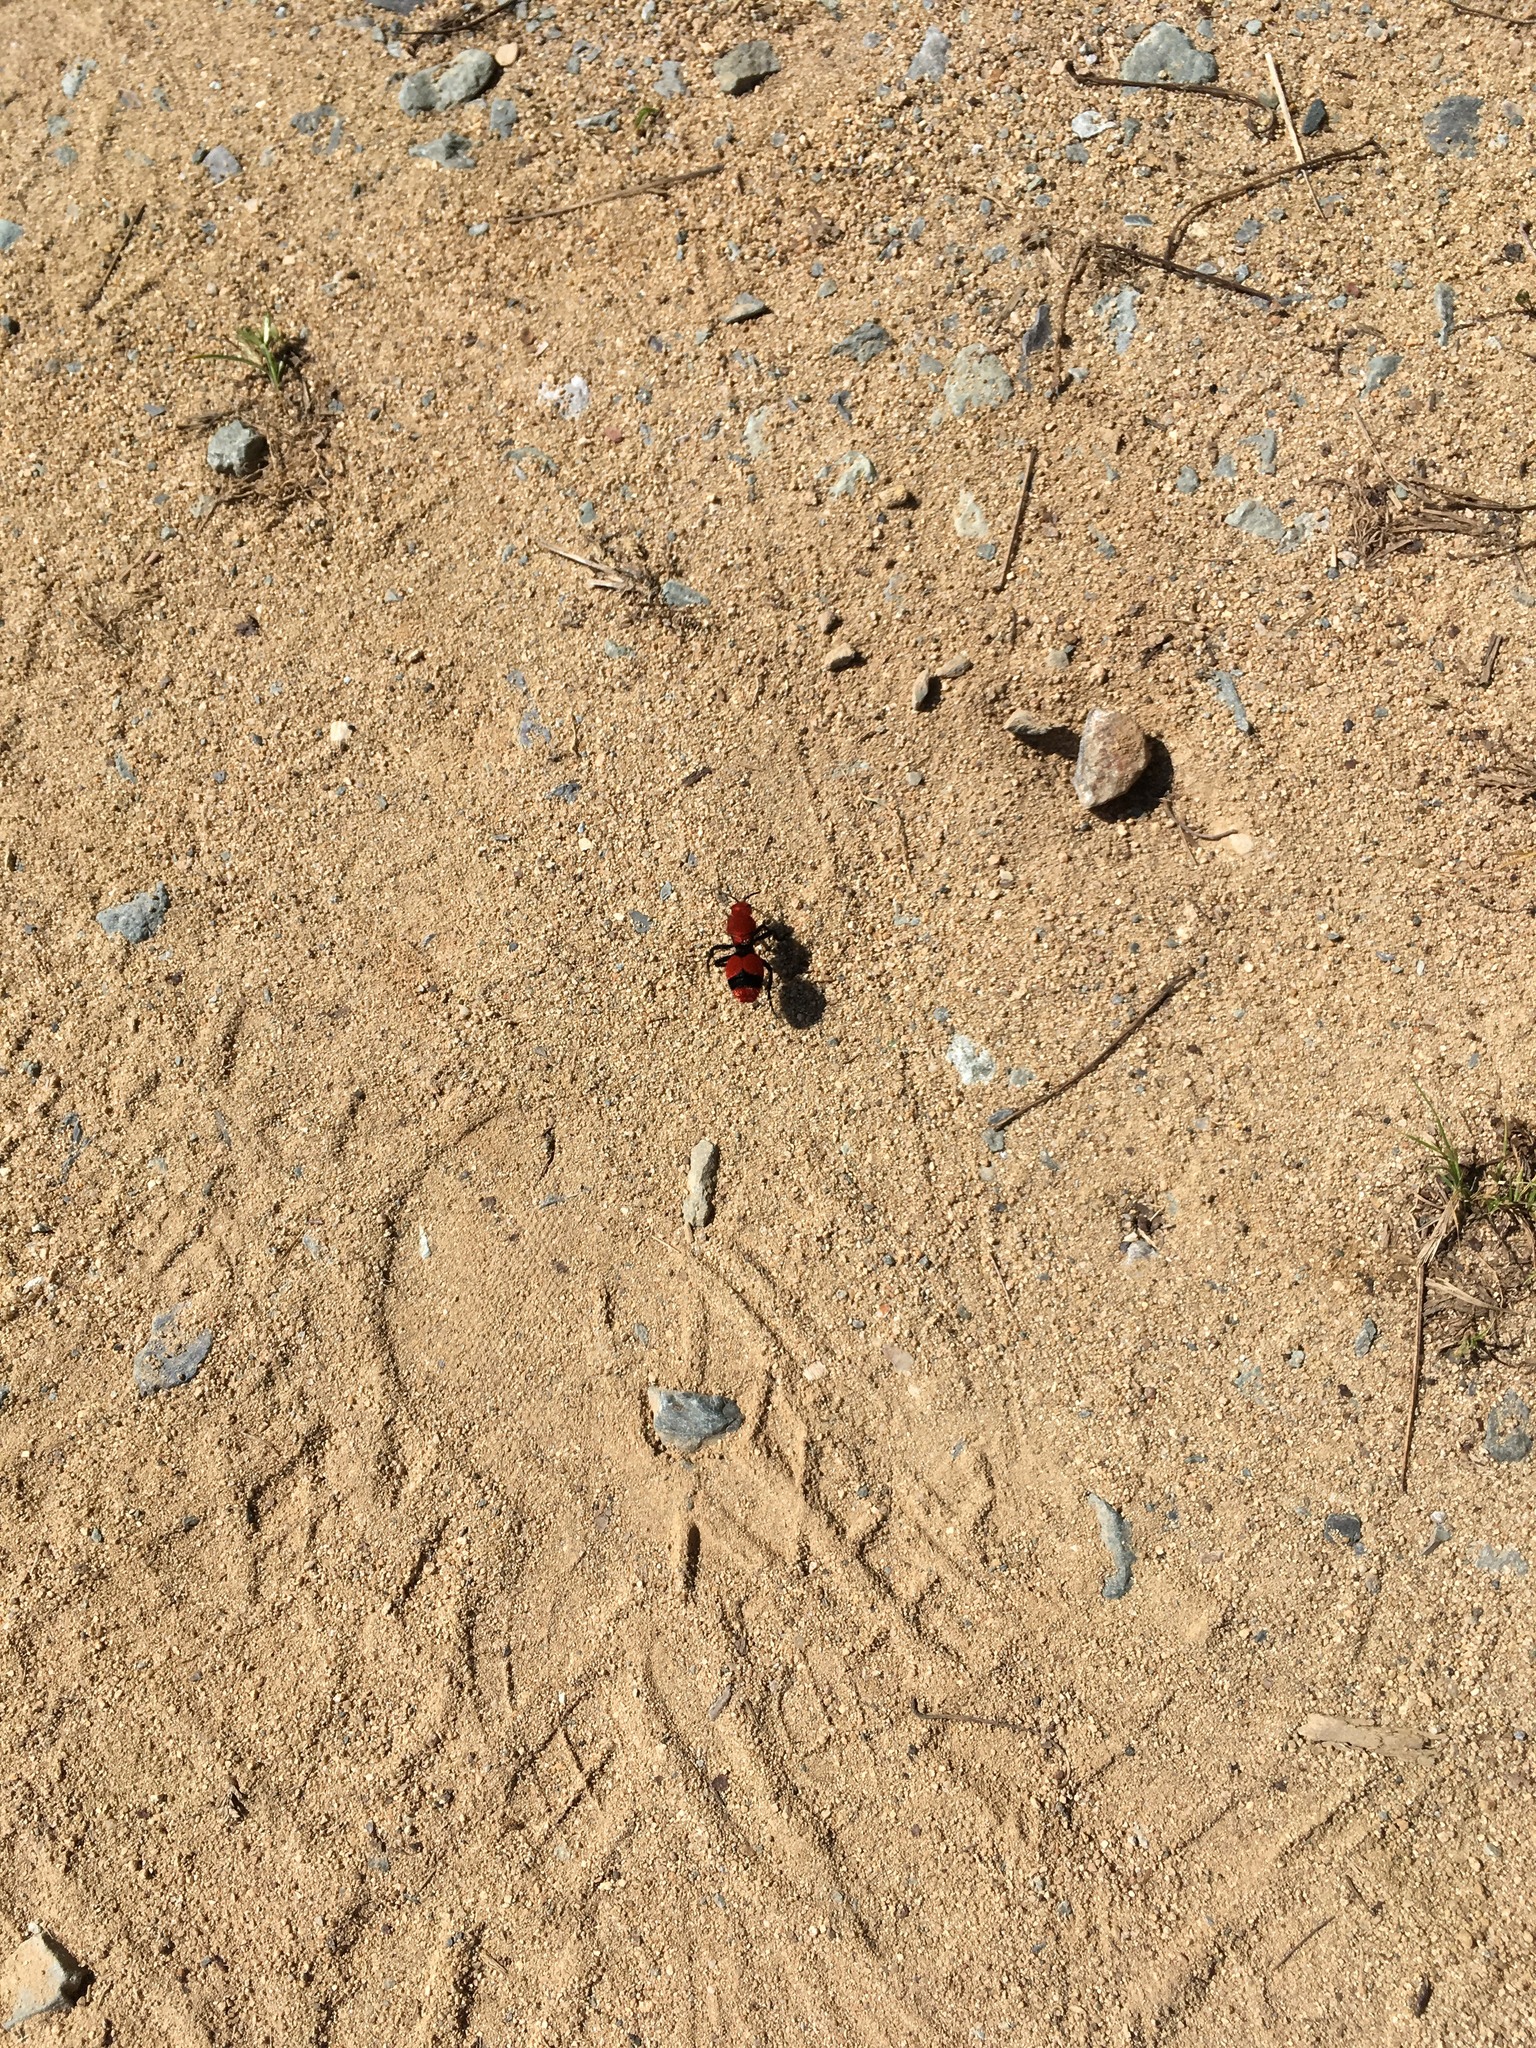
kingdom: Animalia
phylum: Arthropoda
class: Insecta
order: Hymenoptera
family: Mutillidae
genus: Dasymutilla
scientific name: Dasymutilla occidentalis
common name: Common eastern velvet ant
